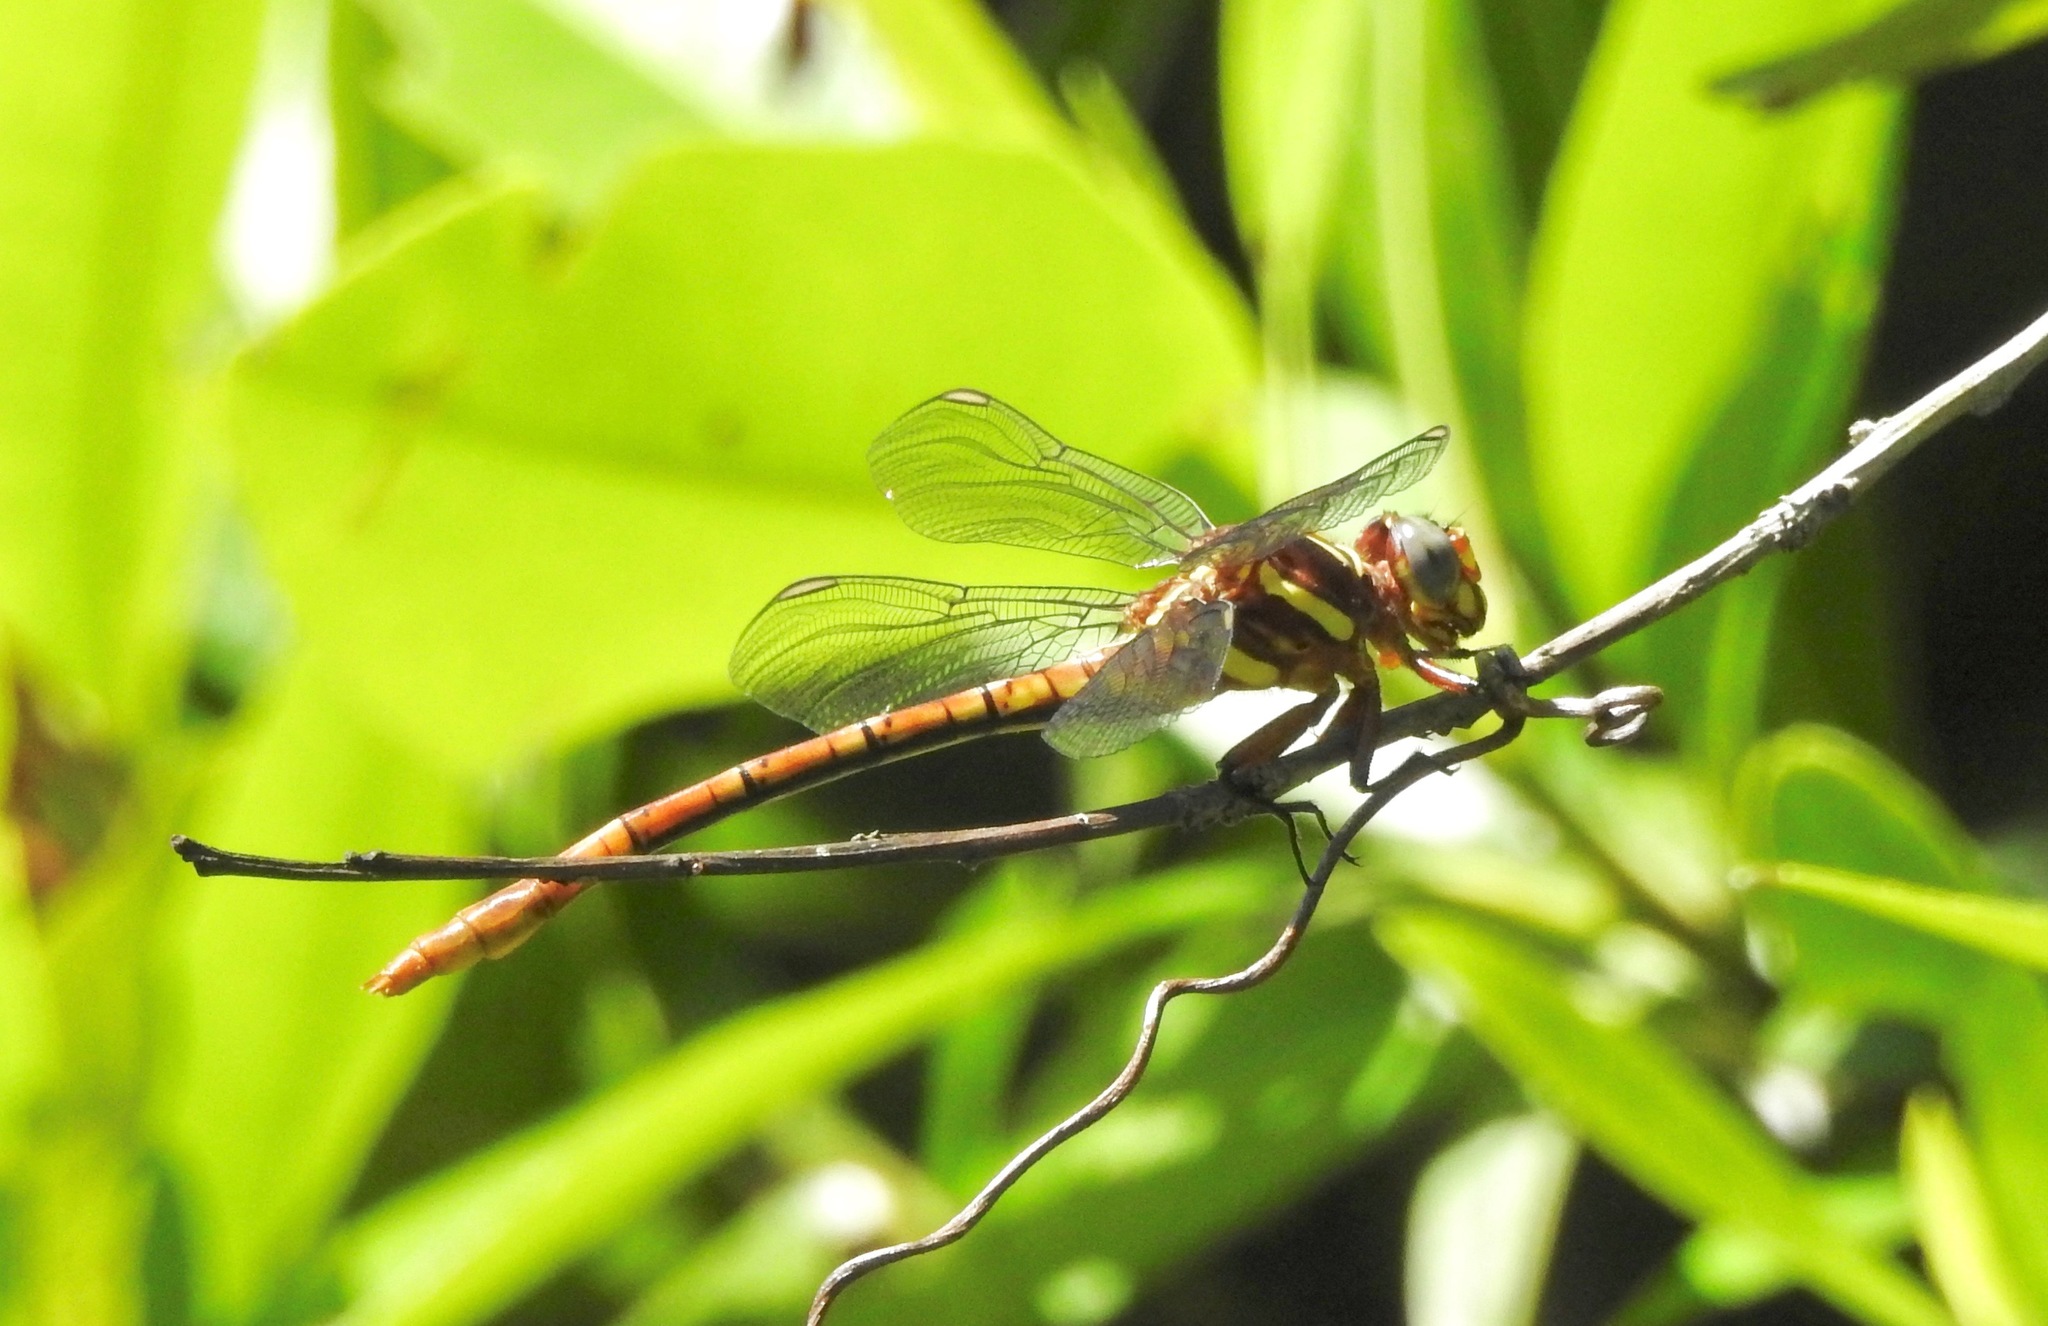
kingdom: Animalia
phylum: Arthropoda
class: Insecta
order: Odonata
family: Gomphidae
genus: Aphylla
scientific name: Aphylla williamsoni
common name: Two-striped forceptail
